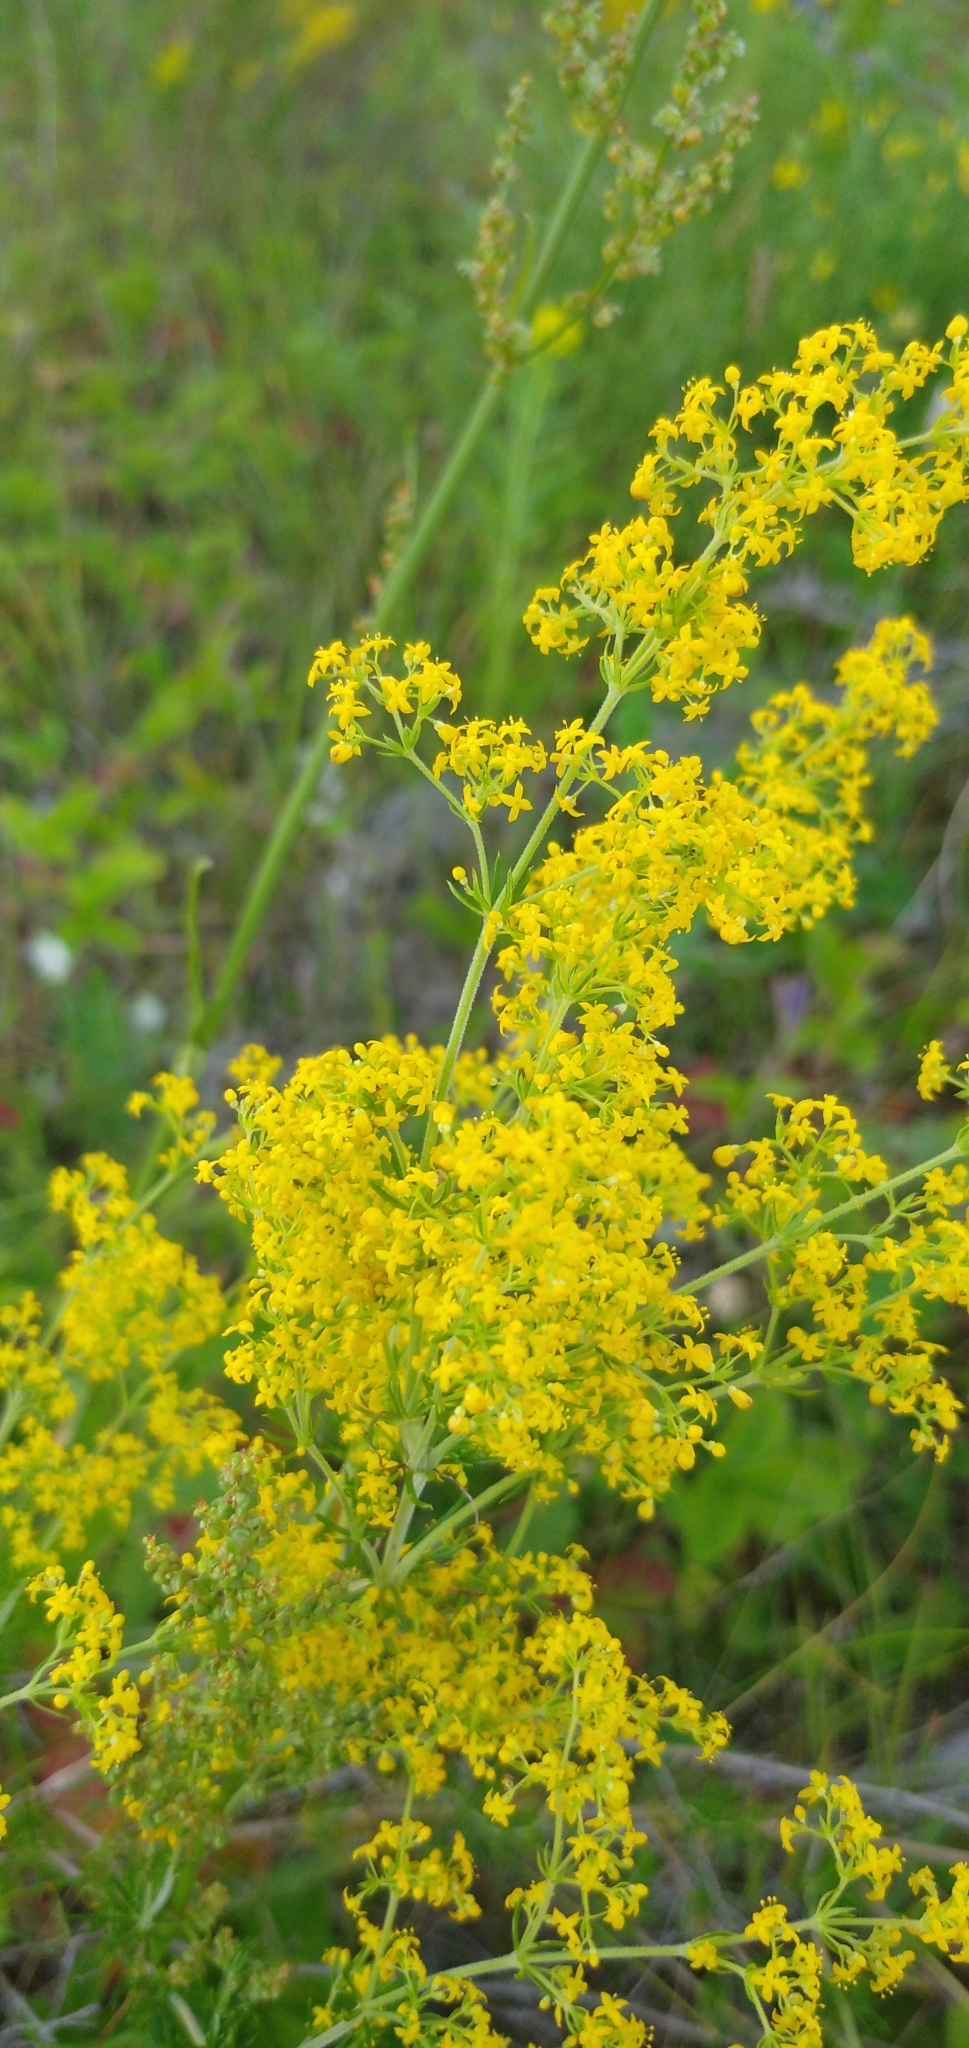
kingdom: Plantae
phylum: Tracheophyta
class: Magnoliopsida
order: Gentianales
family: Rubiaceae
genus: Galium
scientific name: Galium verum
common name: Lady's bedstraw
